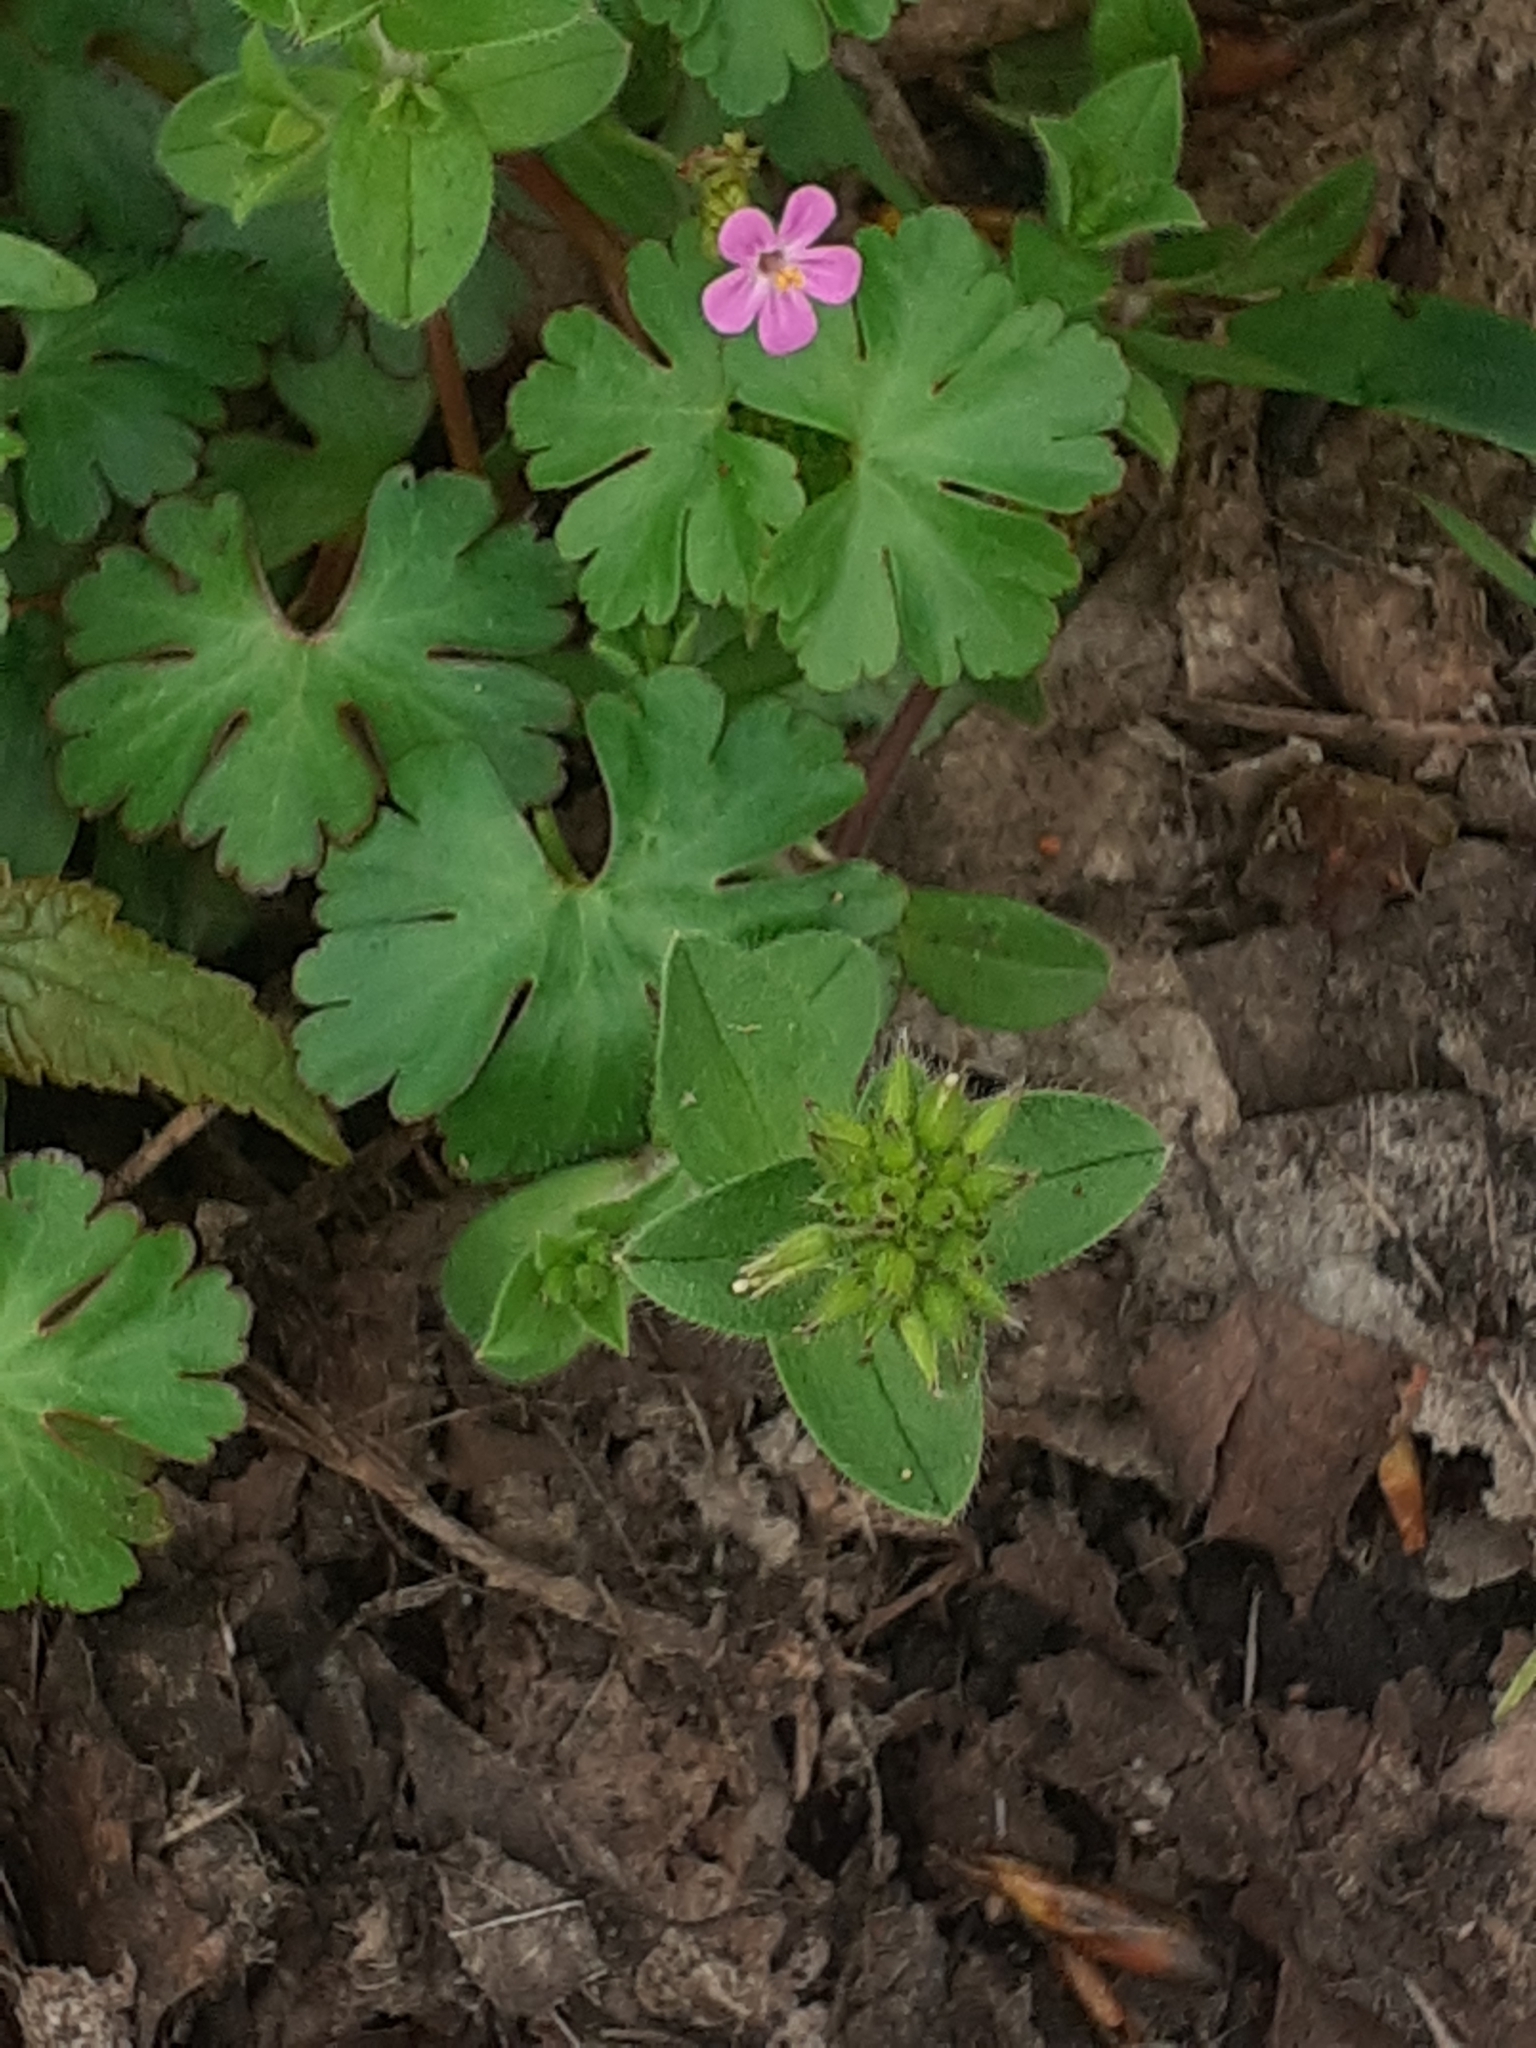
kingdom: Plantae
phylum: Tracheophyta
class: Magnoliopsida
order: Geraniales
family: Geraniaceae
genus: Geranium
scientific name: Geranium lucidum
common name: Shining crane's-bill
